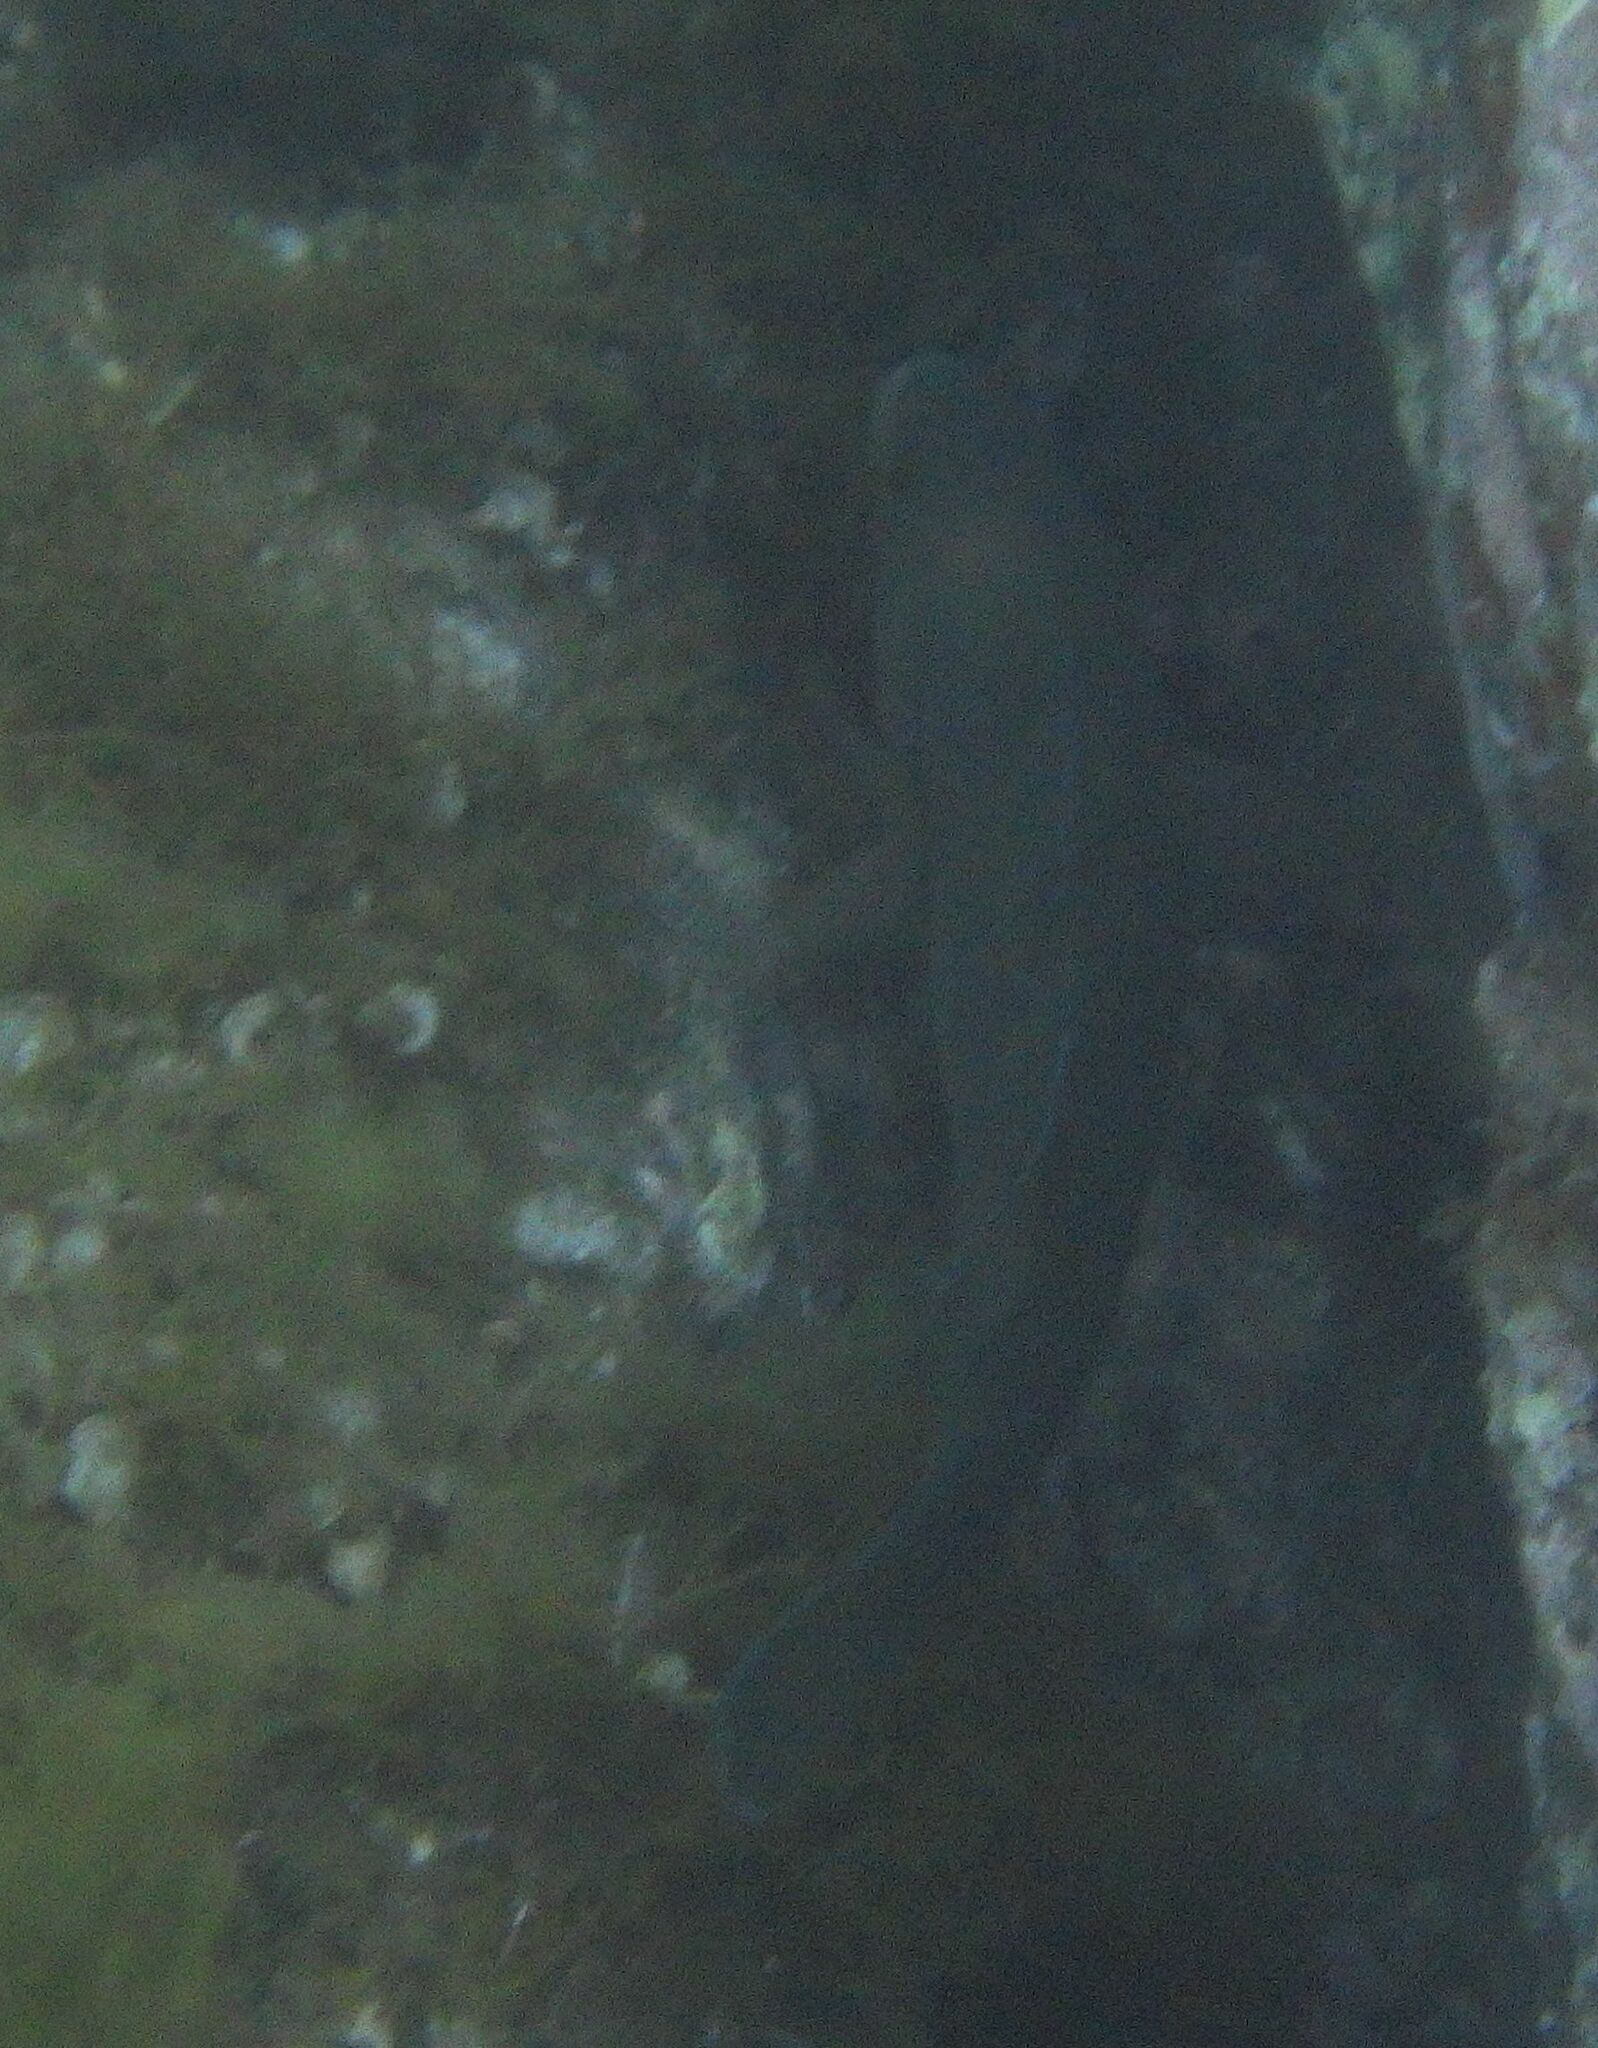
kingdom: Animalia
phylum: Chordata
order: Perciformes
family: Labridae
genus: Labrus
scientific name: Labrus merula
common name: Brown wrasse
